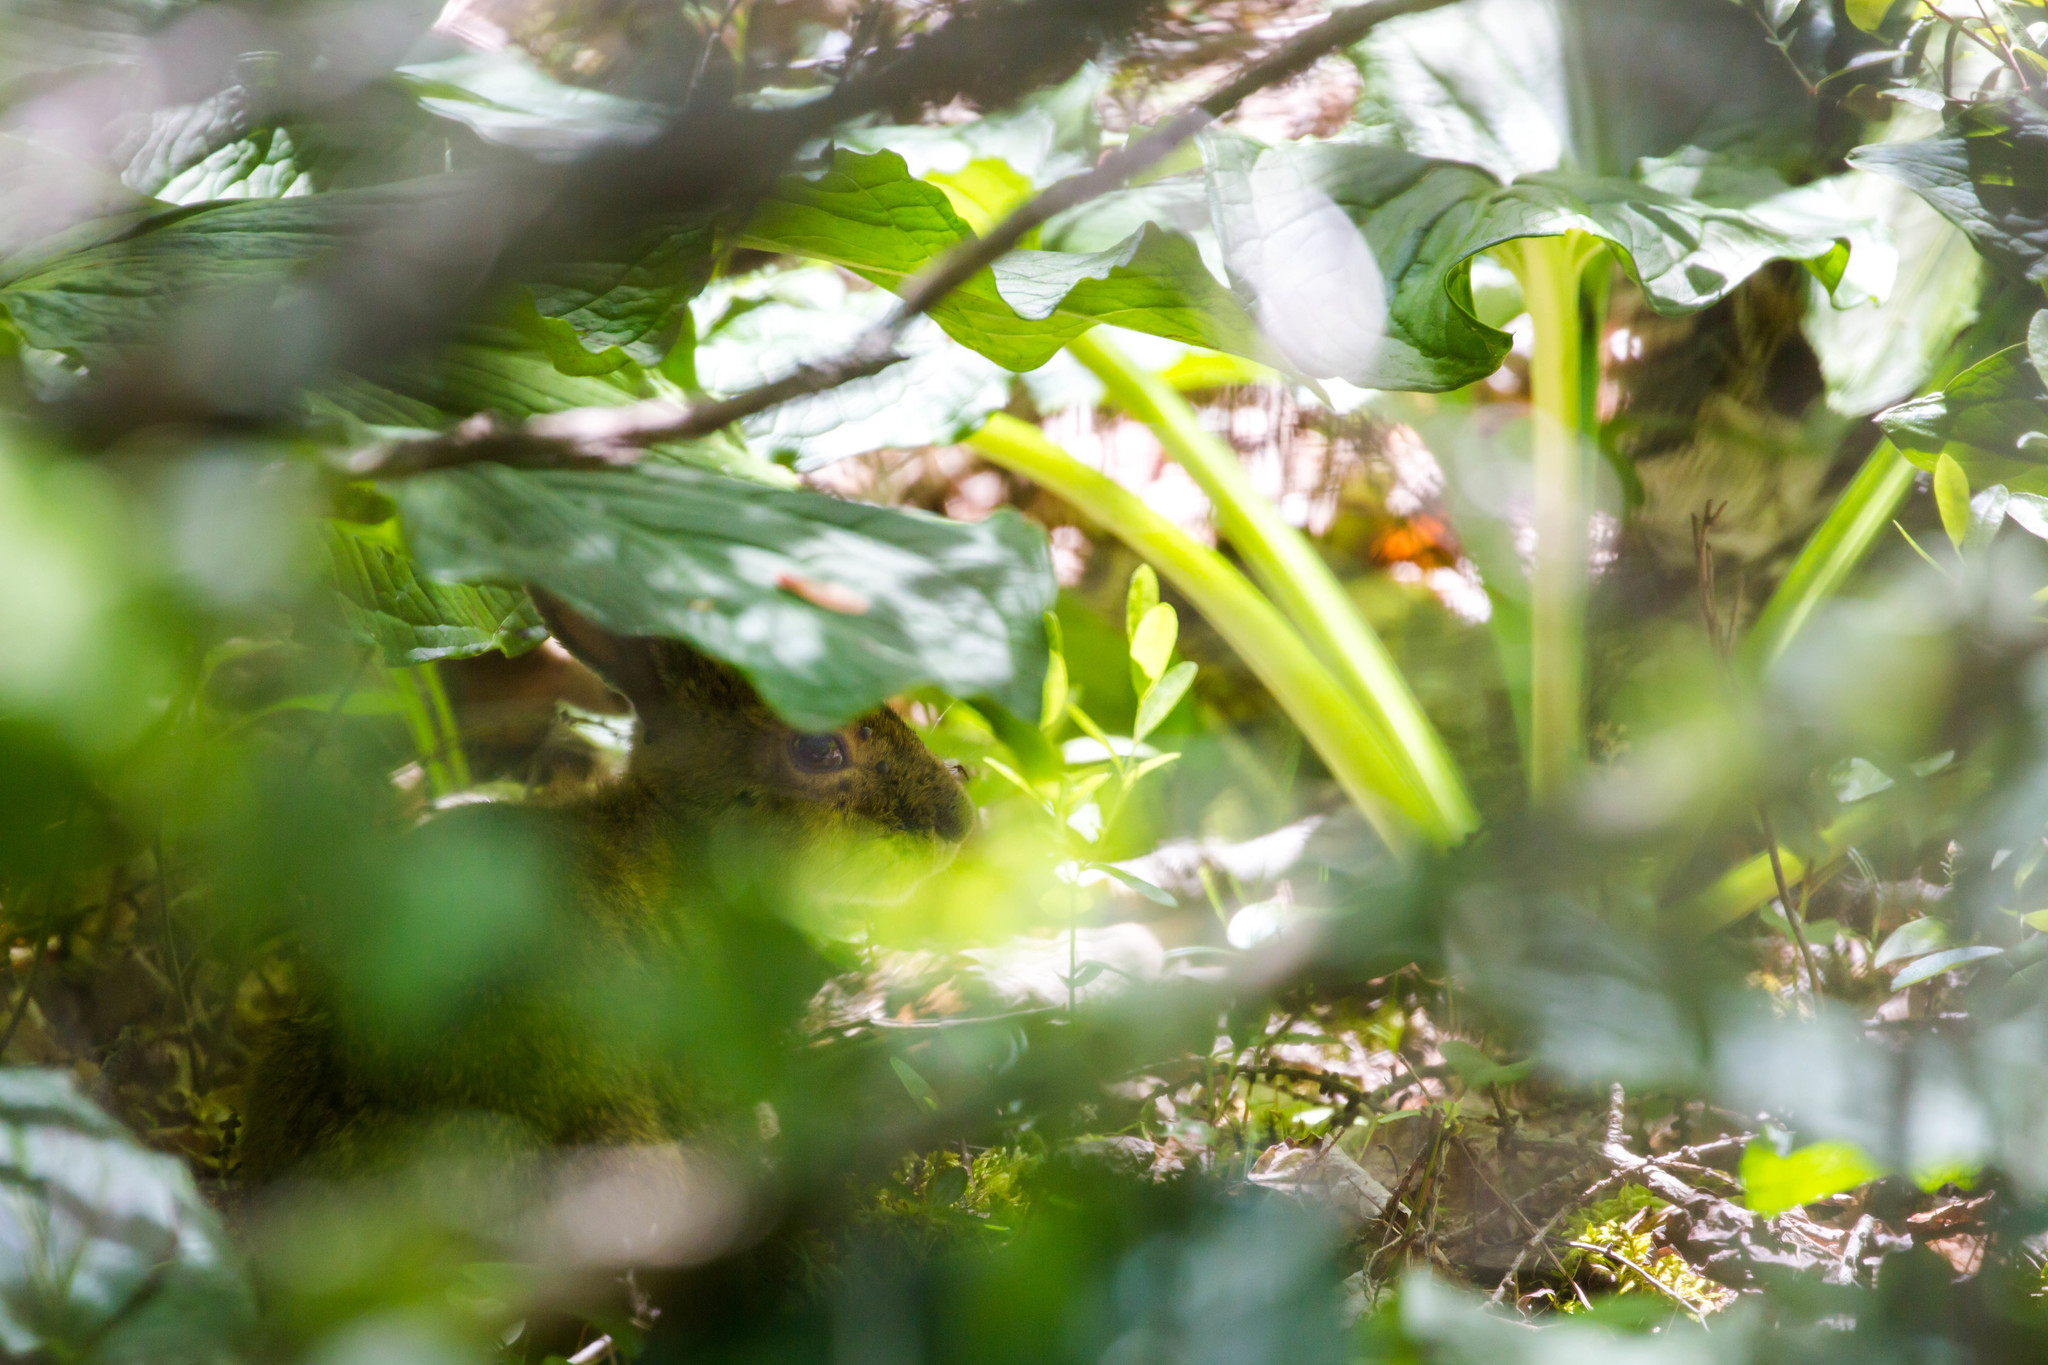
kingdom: Animalia
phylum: Chordata
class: Mammalia
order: Lagomorpha
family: Leporidae
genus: Lepus
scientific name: Lepus americanus
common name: Snowshoe hare
